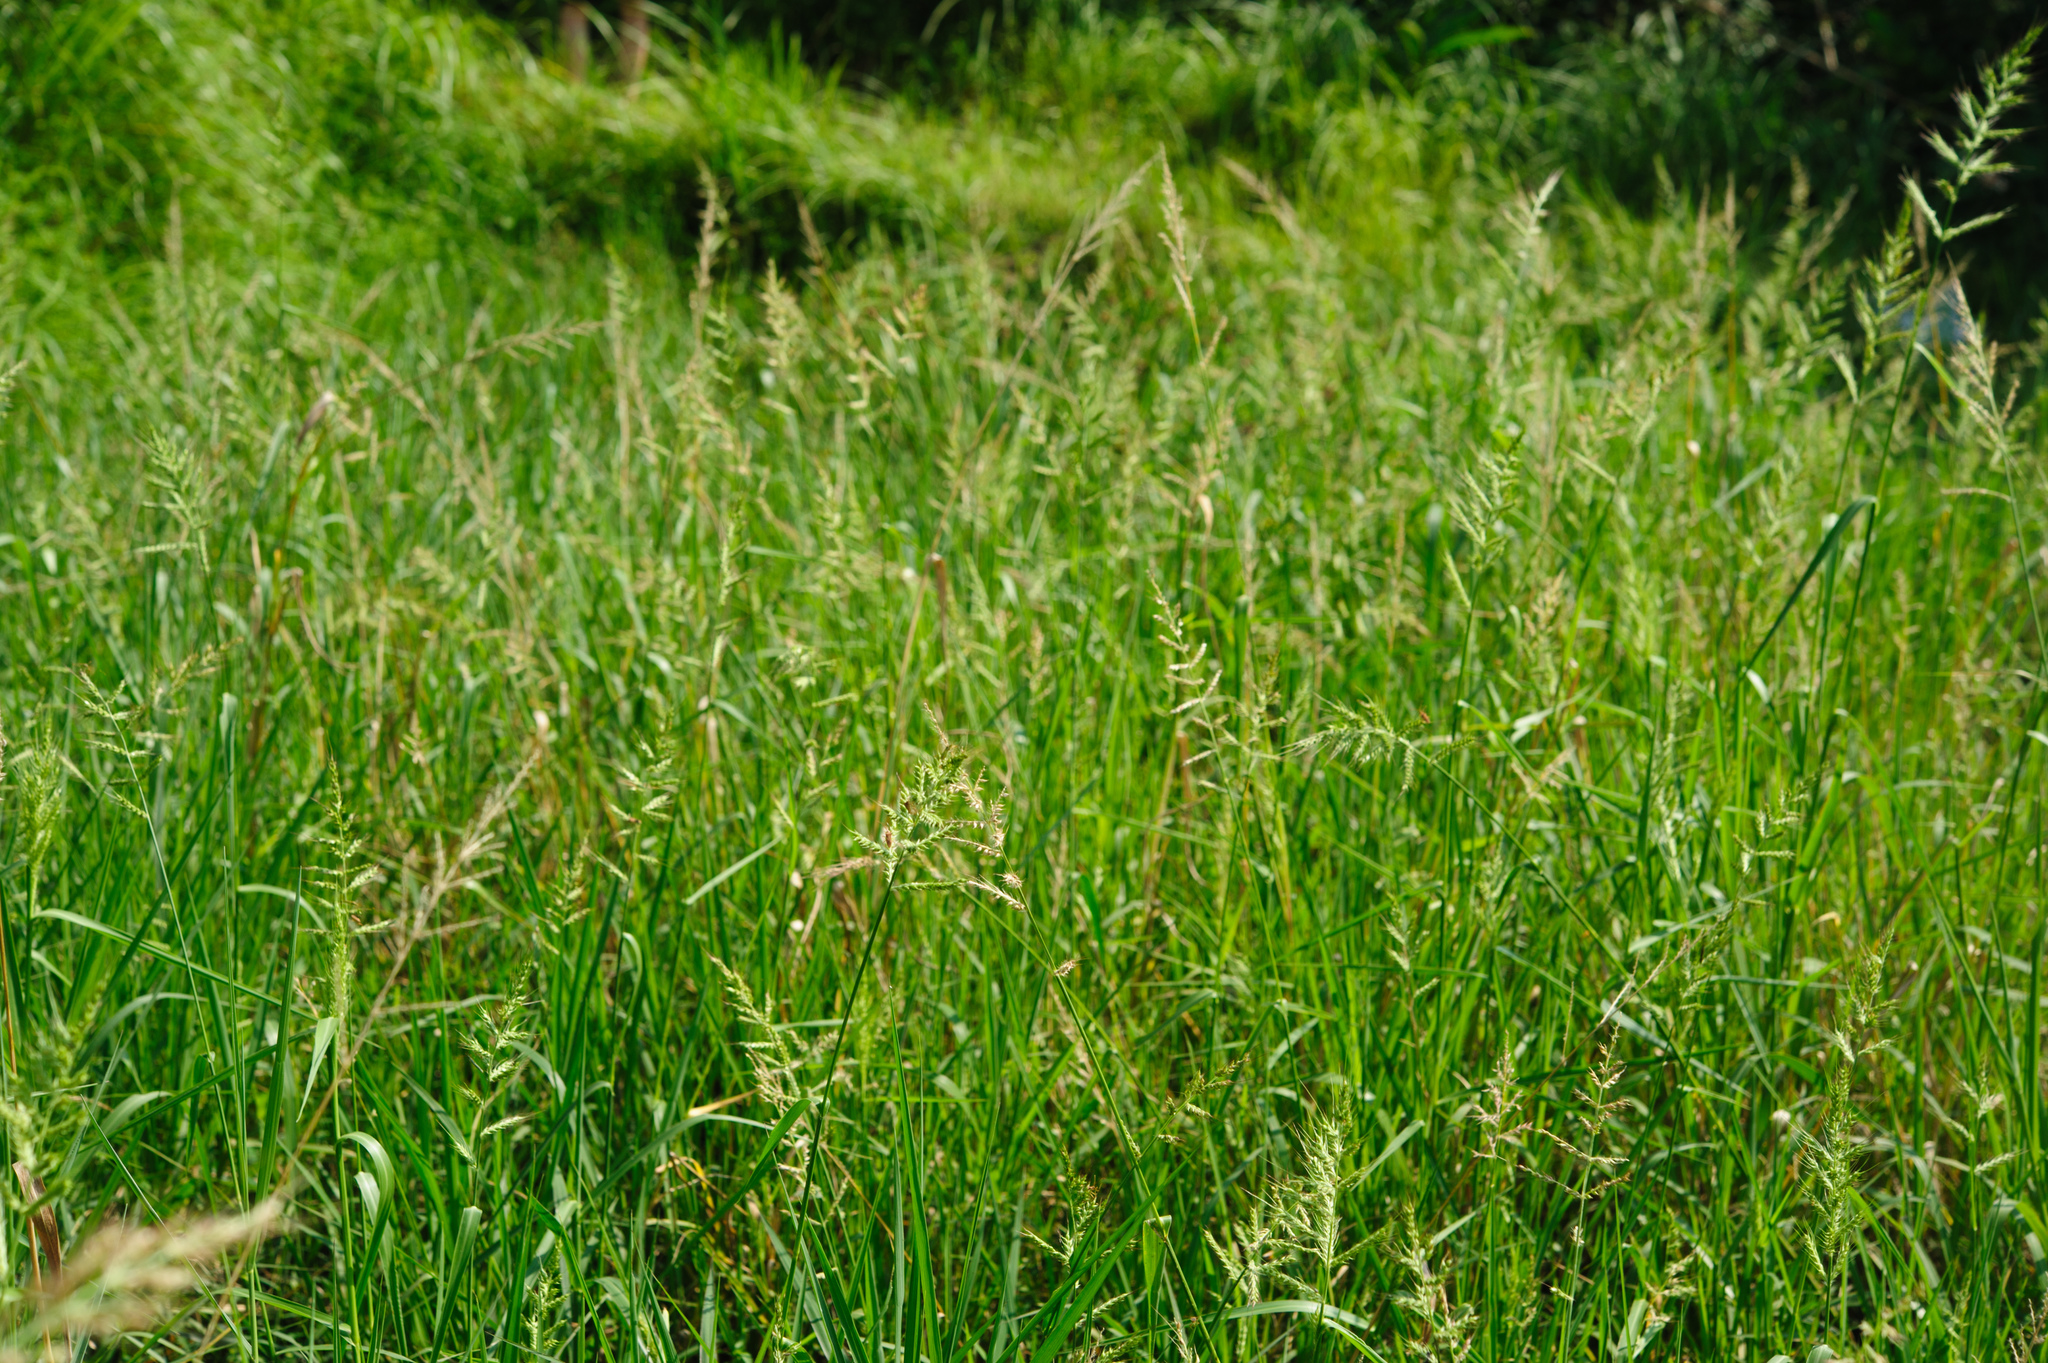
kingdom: Plantae
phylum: Tracheophyta
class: Liliopsida
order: Poales
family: Poaceae
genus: Echinochloa
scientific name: Echinochloa crus-galli
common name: Cockspur
